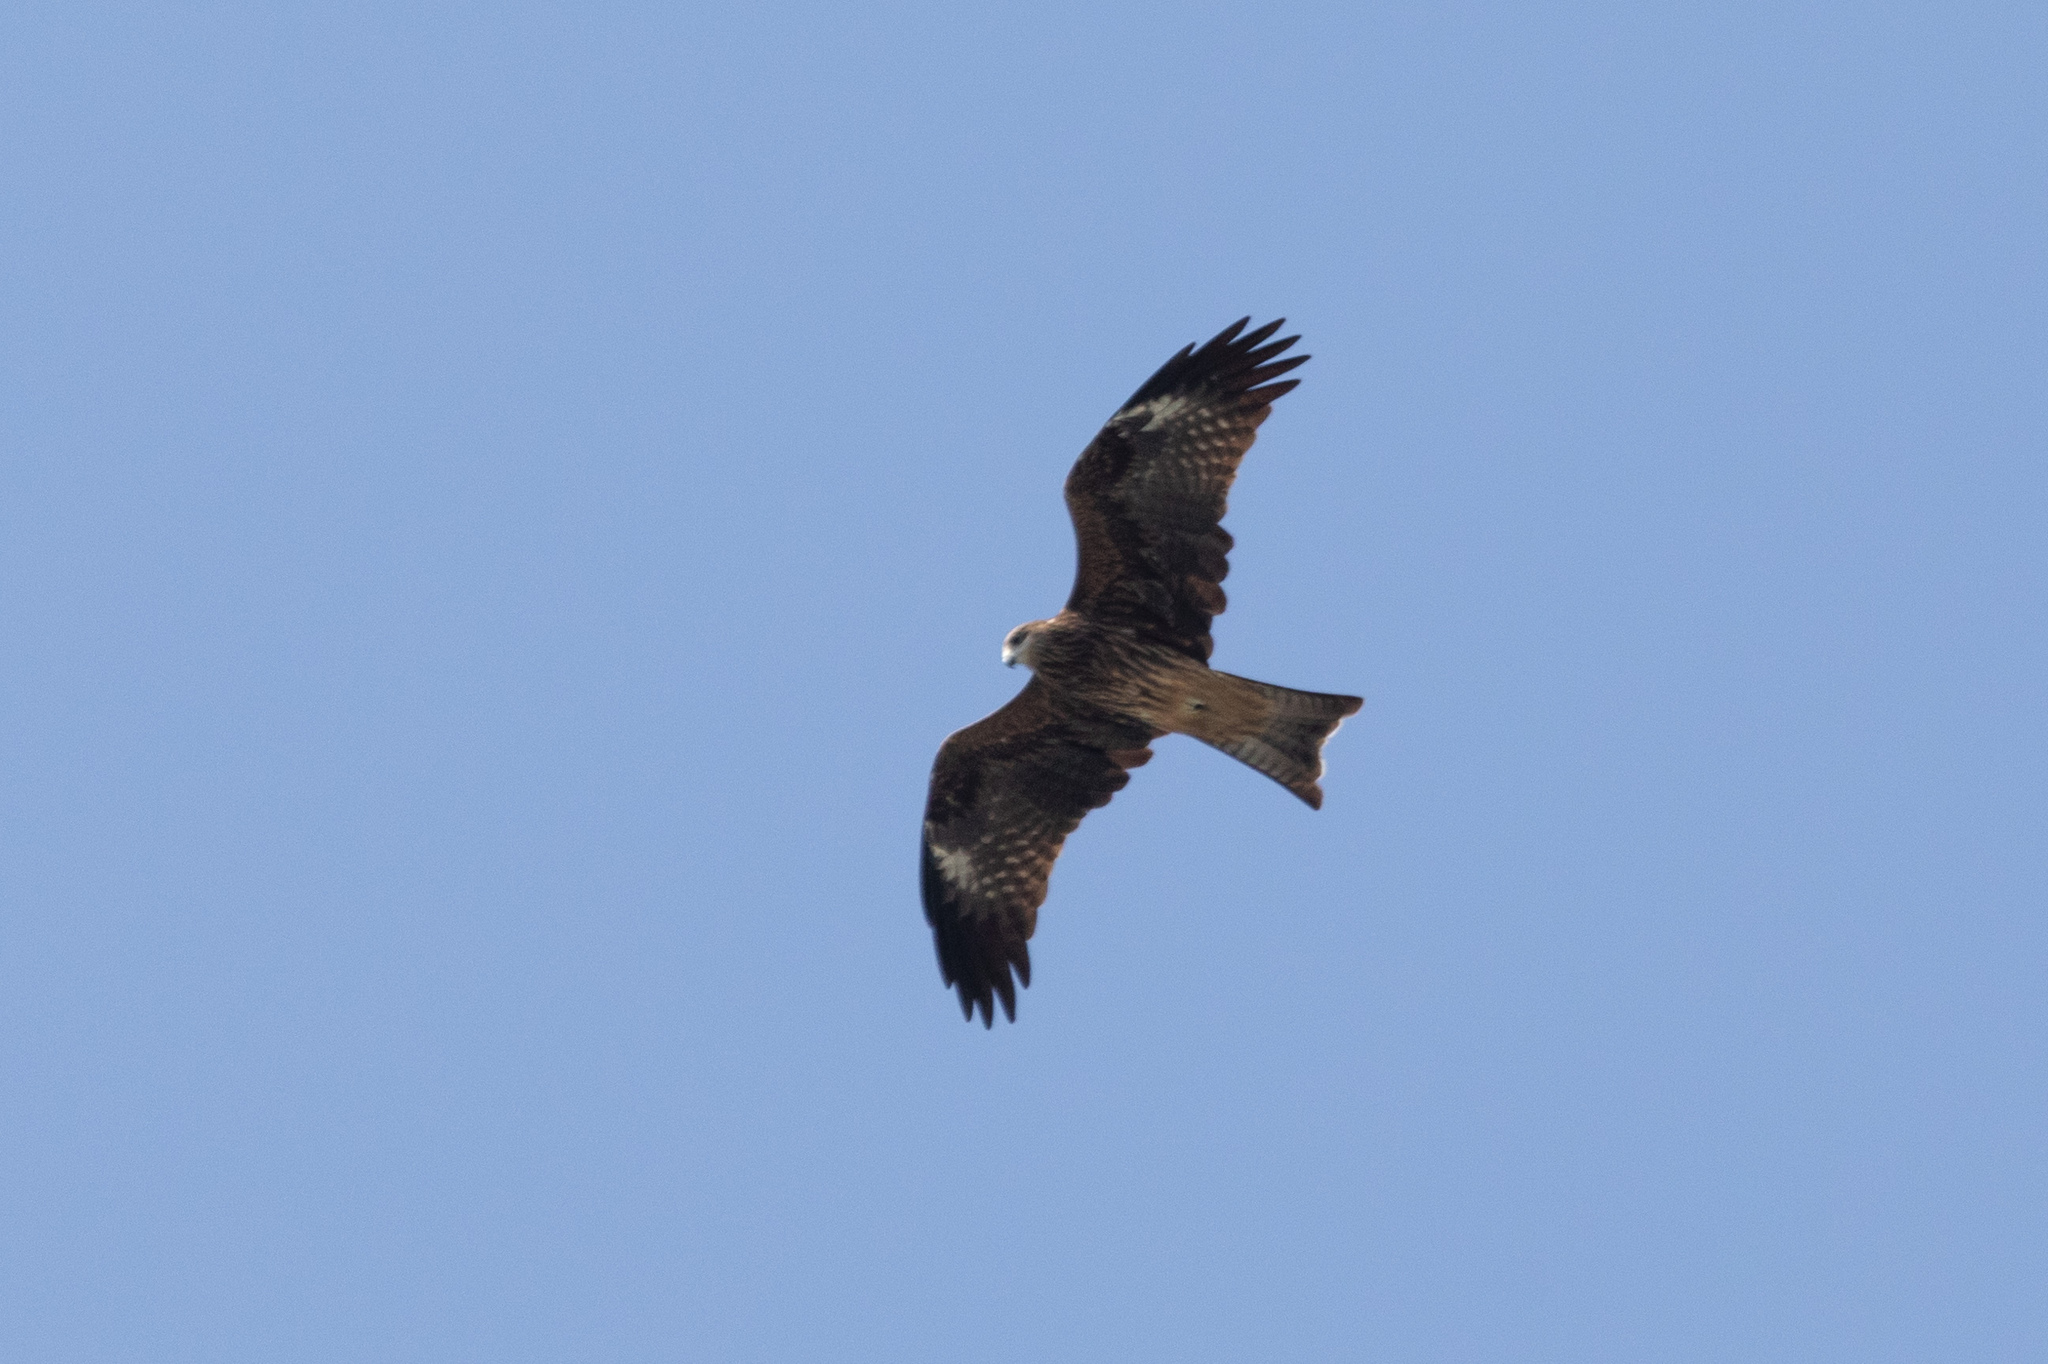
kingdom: Animalia
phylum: Chordata
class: Aves
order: Accipitriformes
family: Accipitridae
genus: Milvus
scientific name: Milvus migrans
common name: Black kite
